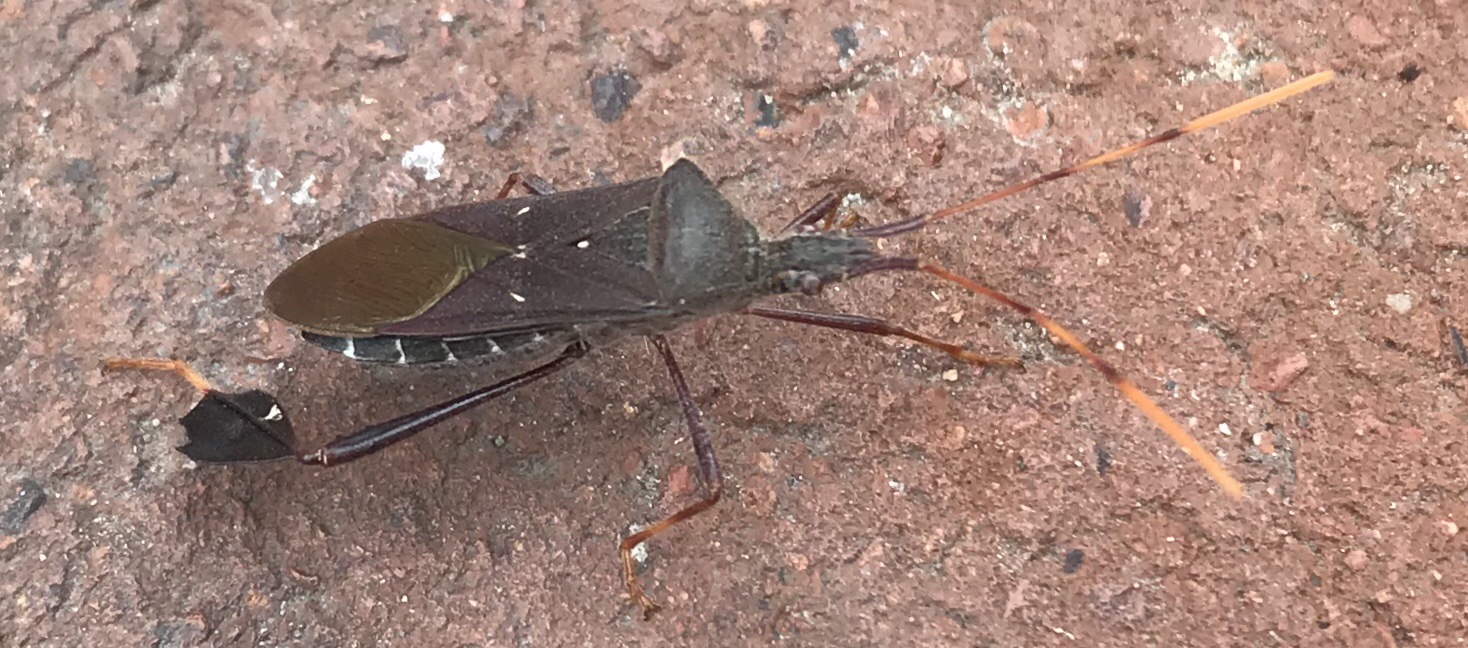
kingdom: Animalia
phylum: Arthropoda
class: Insecta
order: Hemiptera
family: Coreidae
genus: Leptoglossus
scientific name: Leptoglossus oppositus
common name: Northern leaf-footed bug
